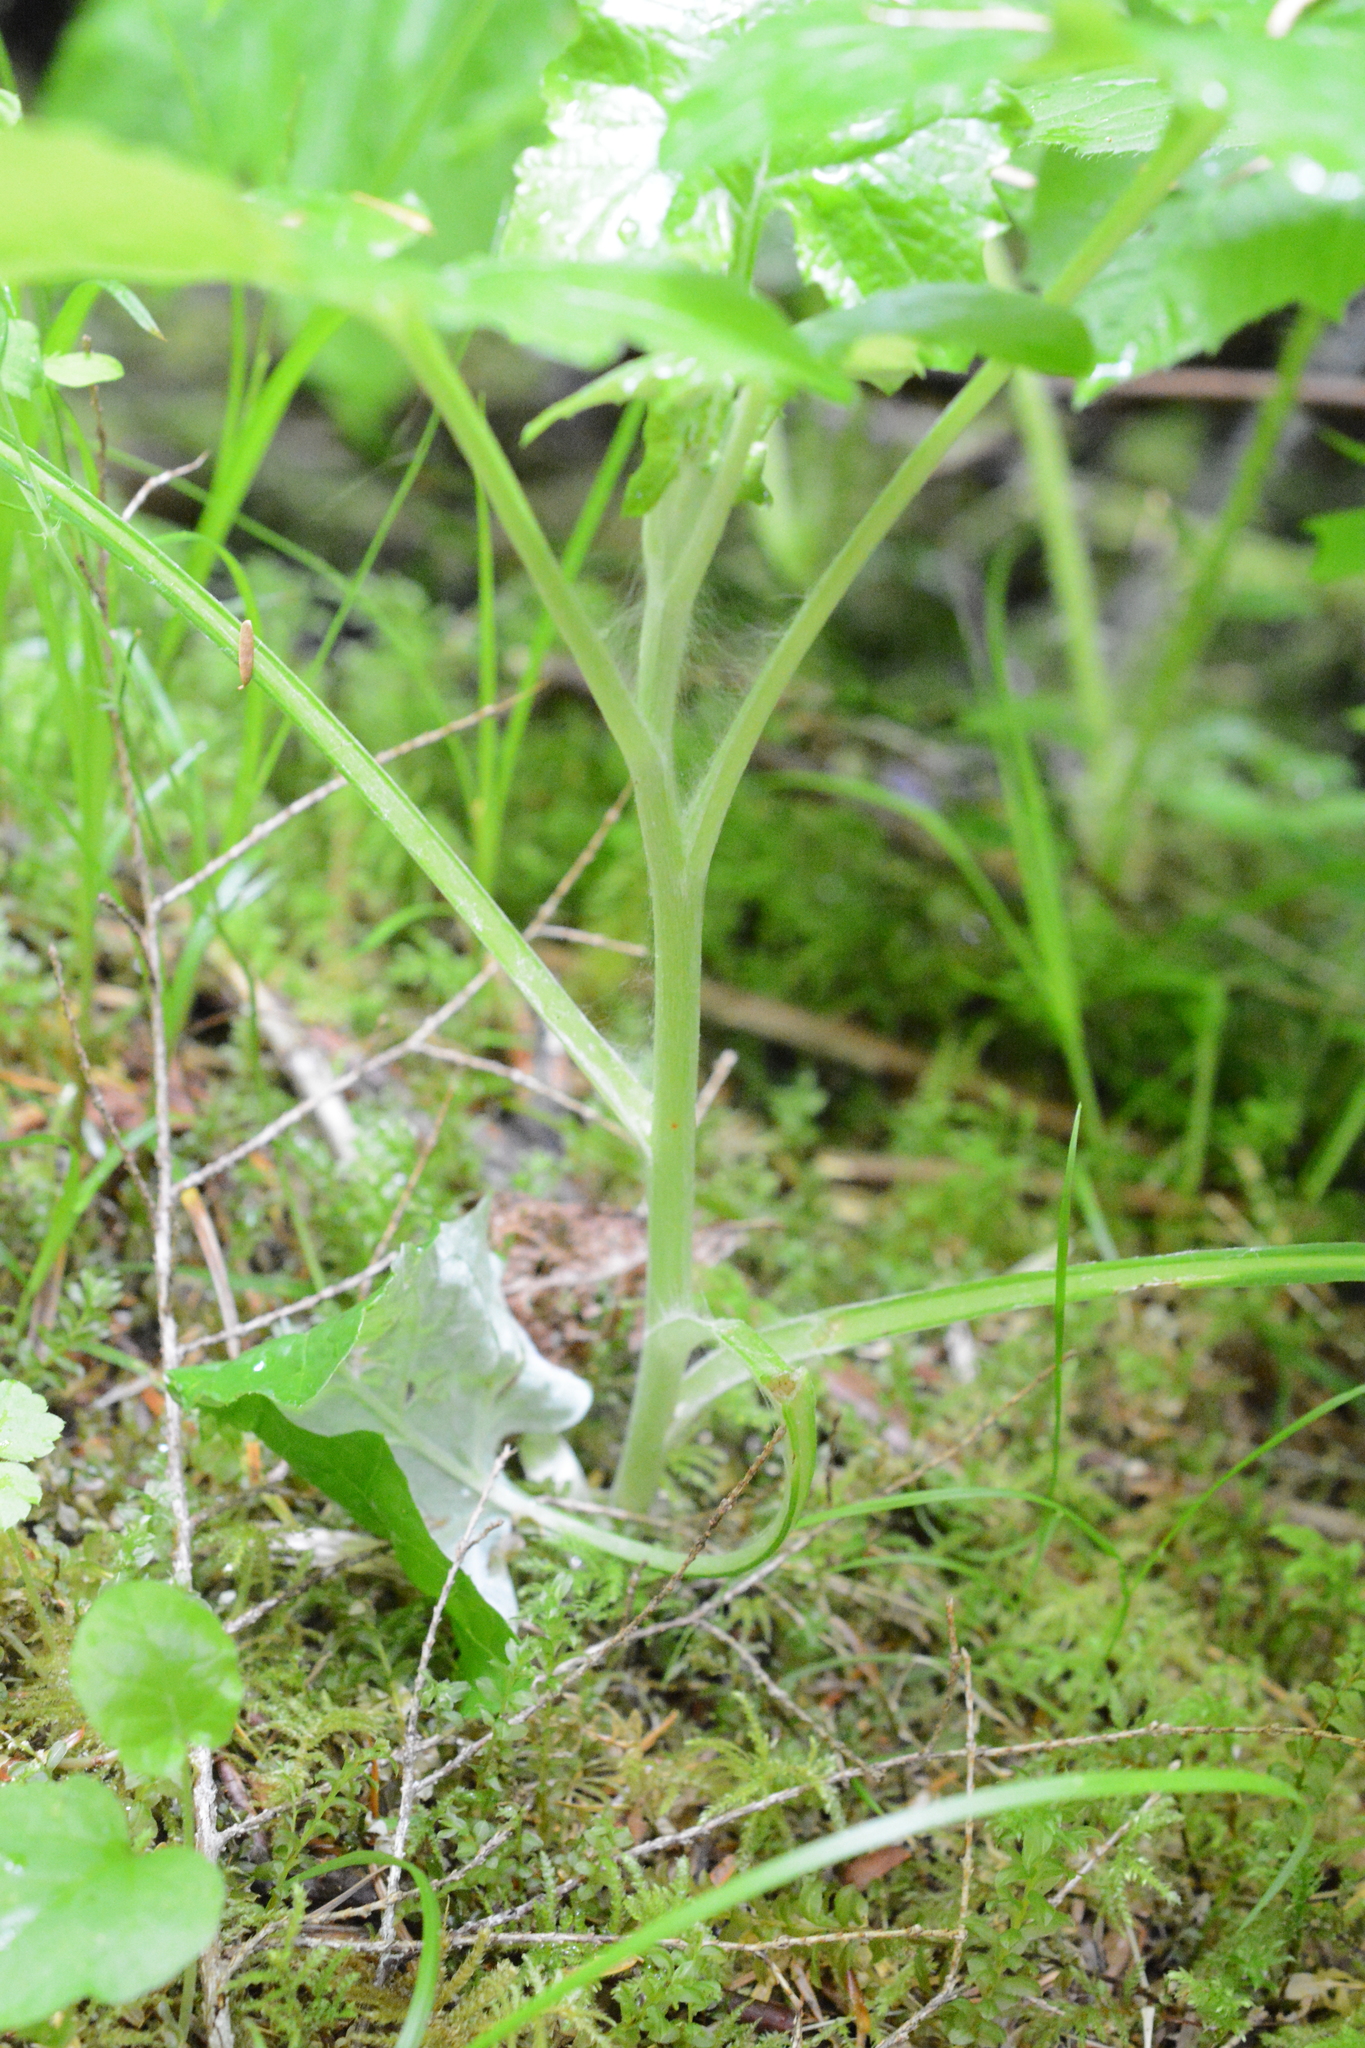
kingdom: Plantae
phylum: Tracheophyta
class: Magnoliopsida
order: Asterales
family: Asteraceae
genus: Adenocaulon
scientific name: Adenocaulon bicolor
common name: Trailplant
